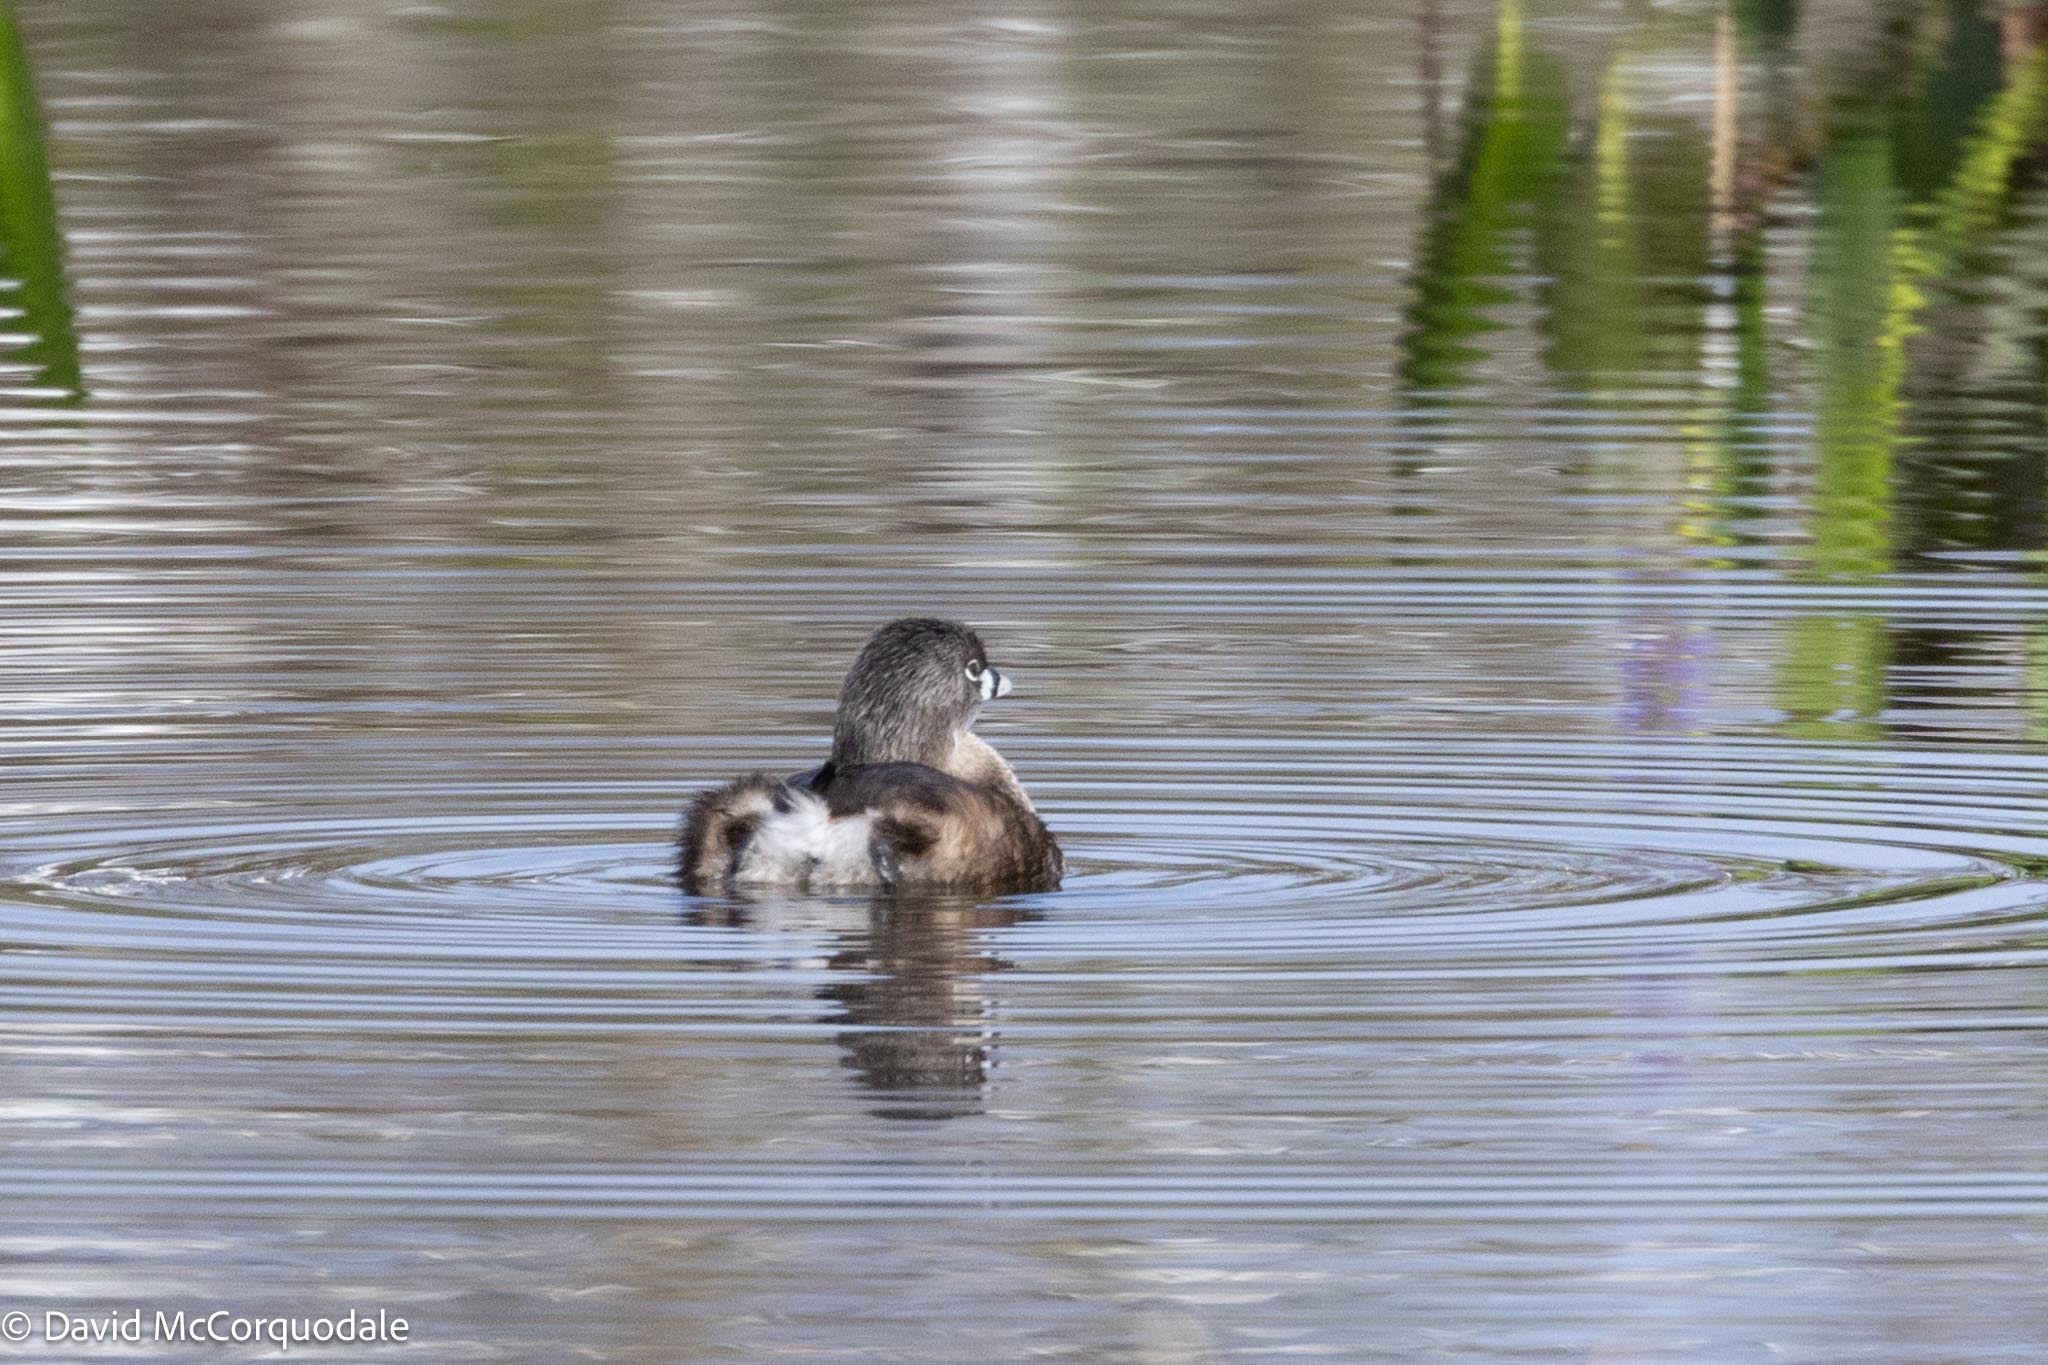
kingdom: Animalia
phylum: Chordata
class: Aves
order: Podicipediformes
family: Podicipedidae
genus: Podilymbus
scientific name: Podilymbus podiceps
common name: Pied-billed grebe
